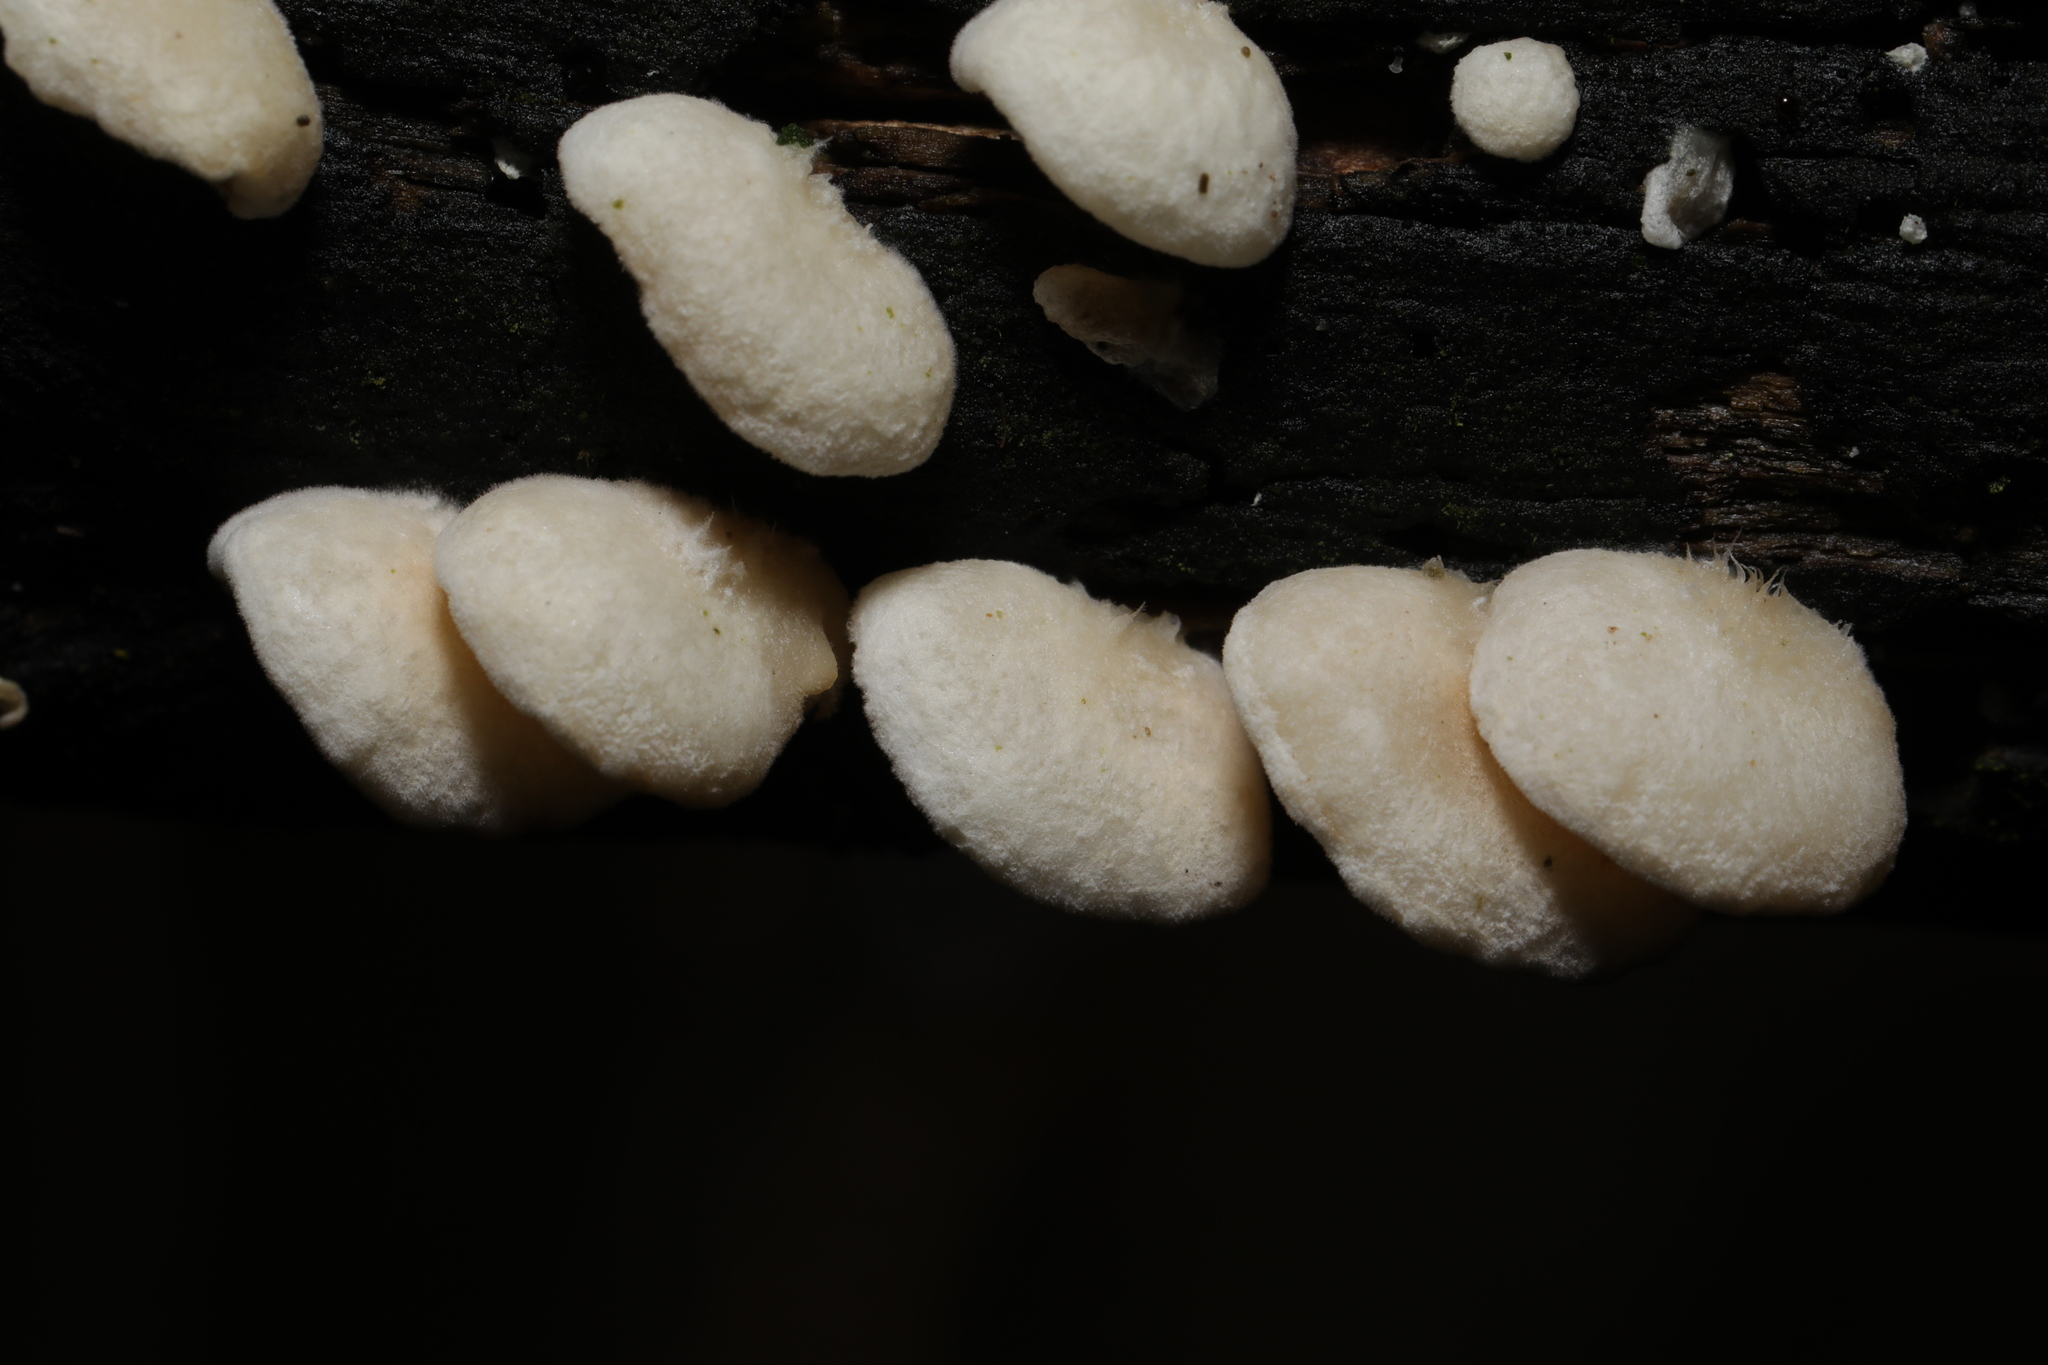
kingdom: Fungi
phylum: Basidiomycota
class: Agaricomycetes
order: Agaricales
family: Crepidotaceae
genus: Crepidotus
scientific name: Crepidotus
